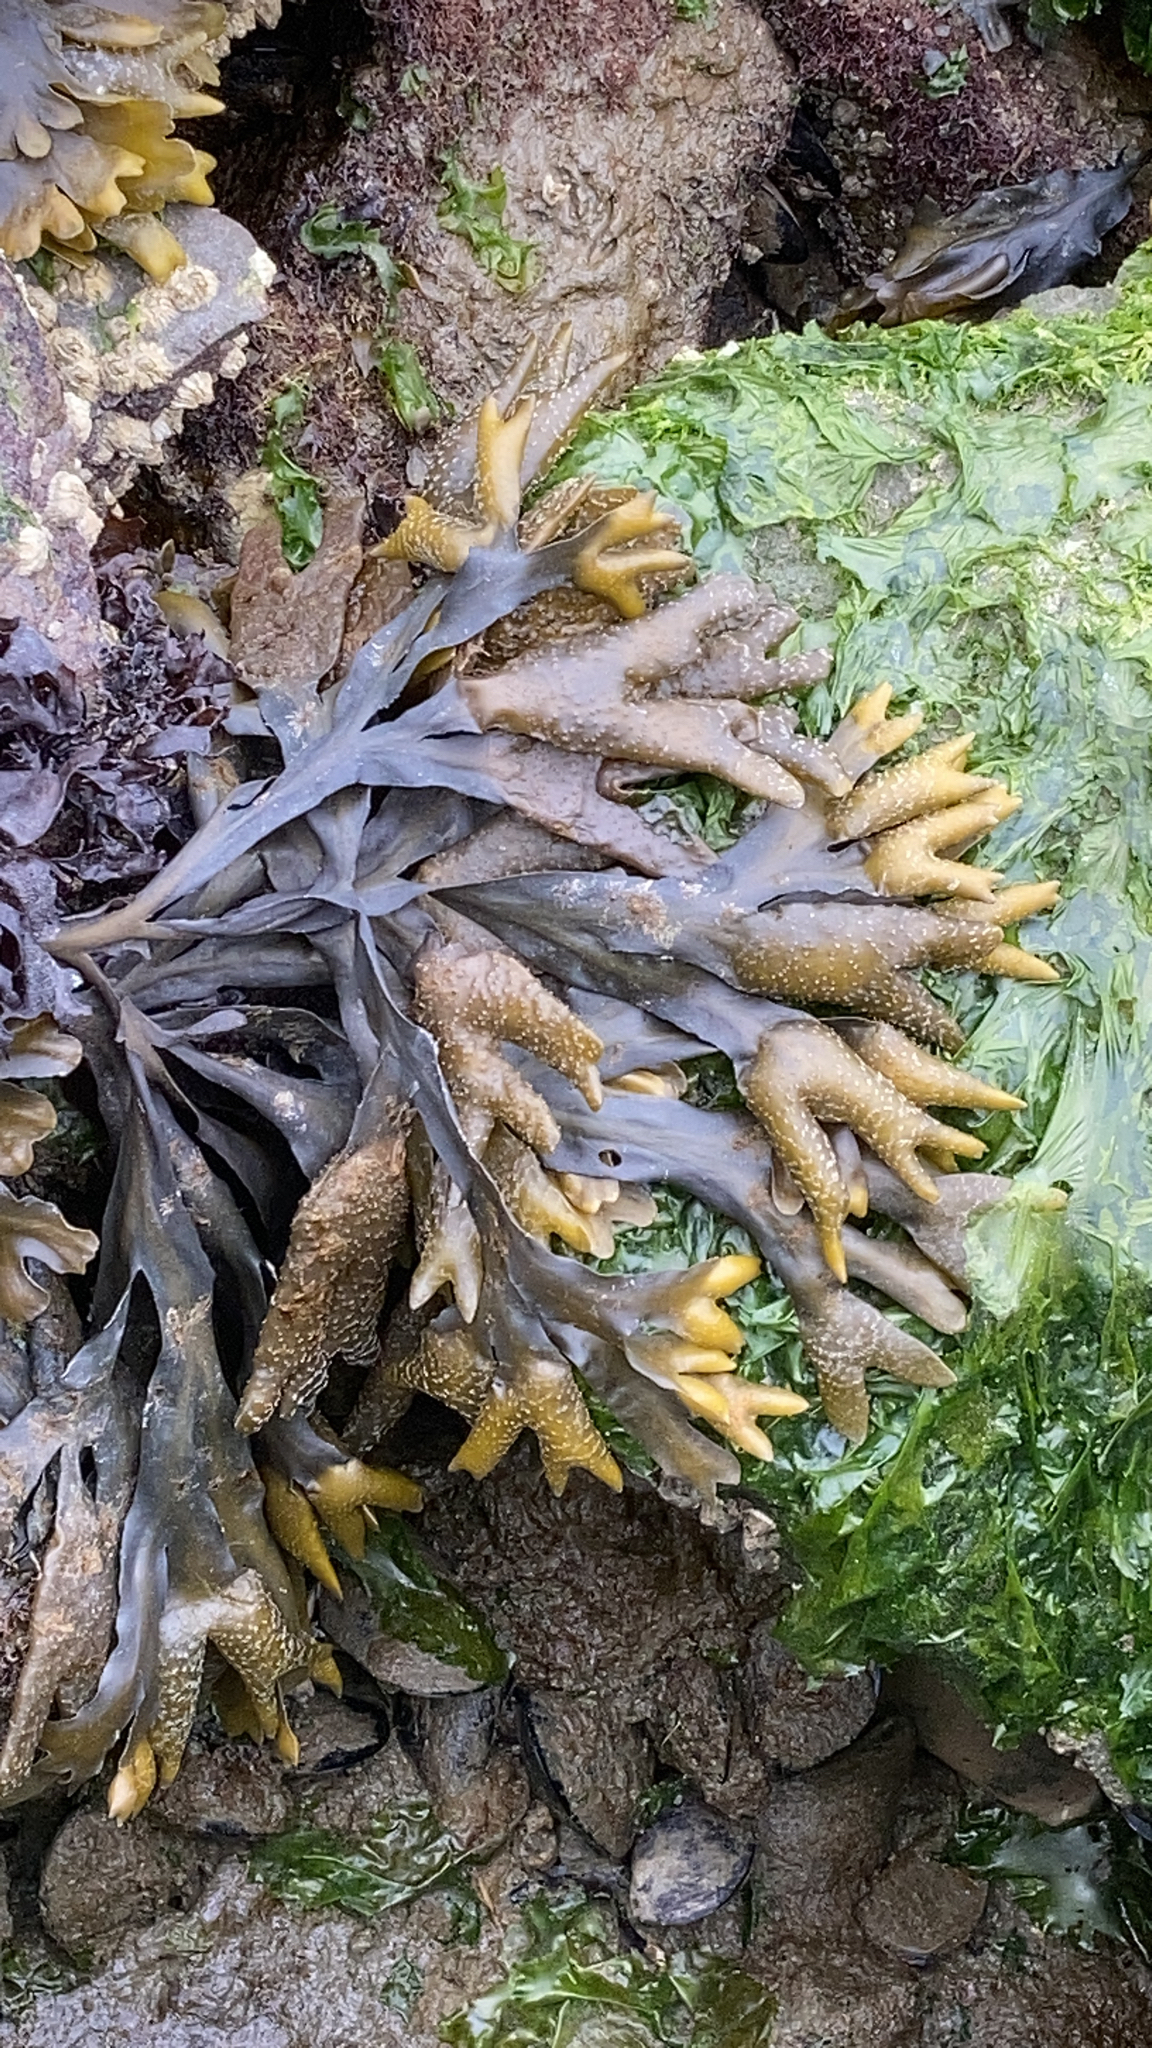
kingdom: Chromista
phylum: Ochrophyta
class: Phaeophyceae
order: Fucales
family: Fucaceae
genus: Fucus
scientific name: Fucus distichus
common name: Rockweed
